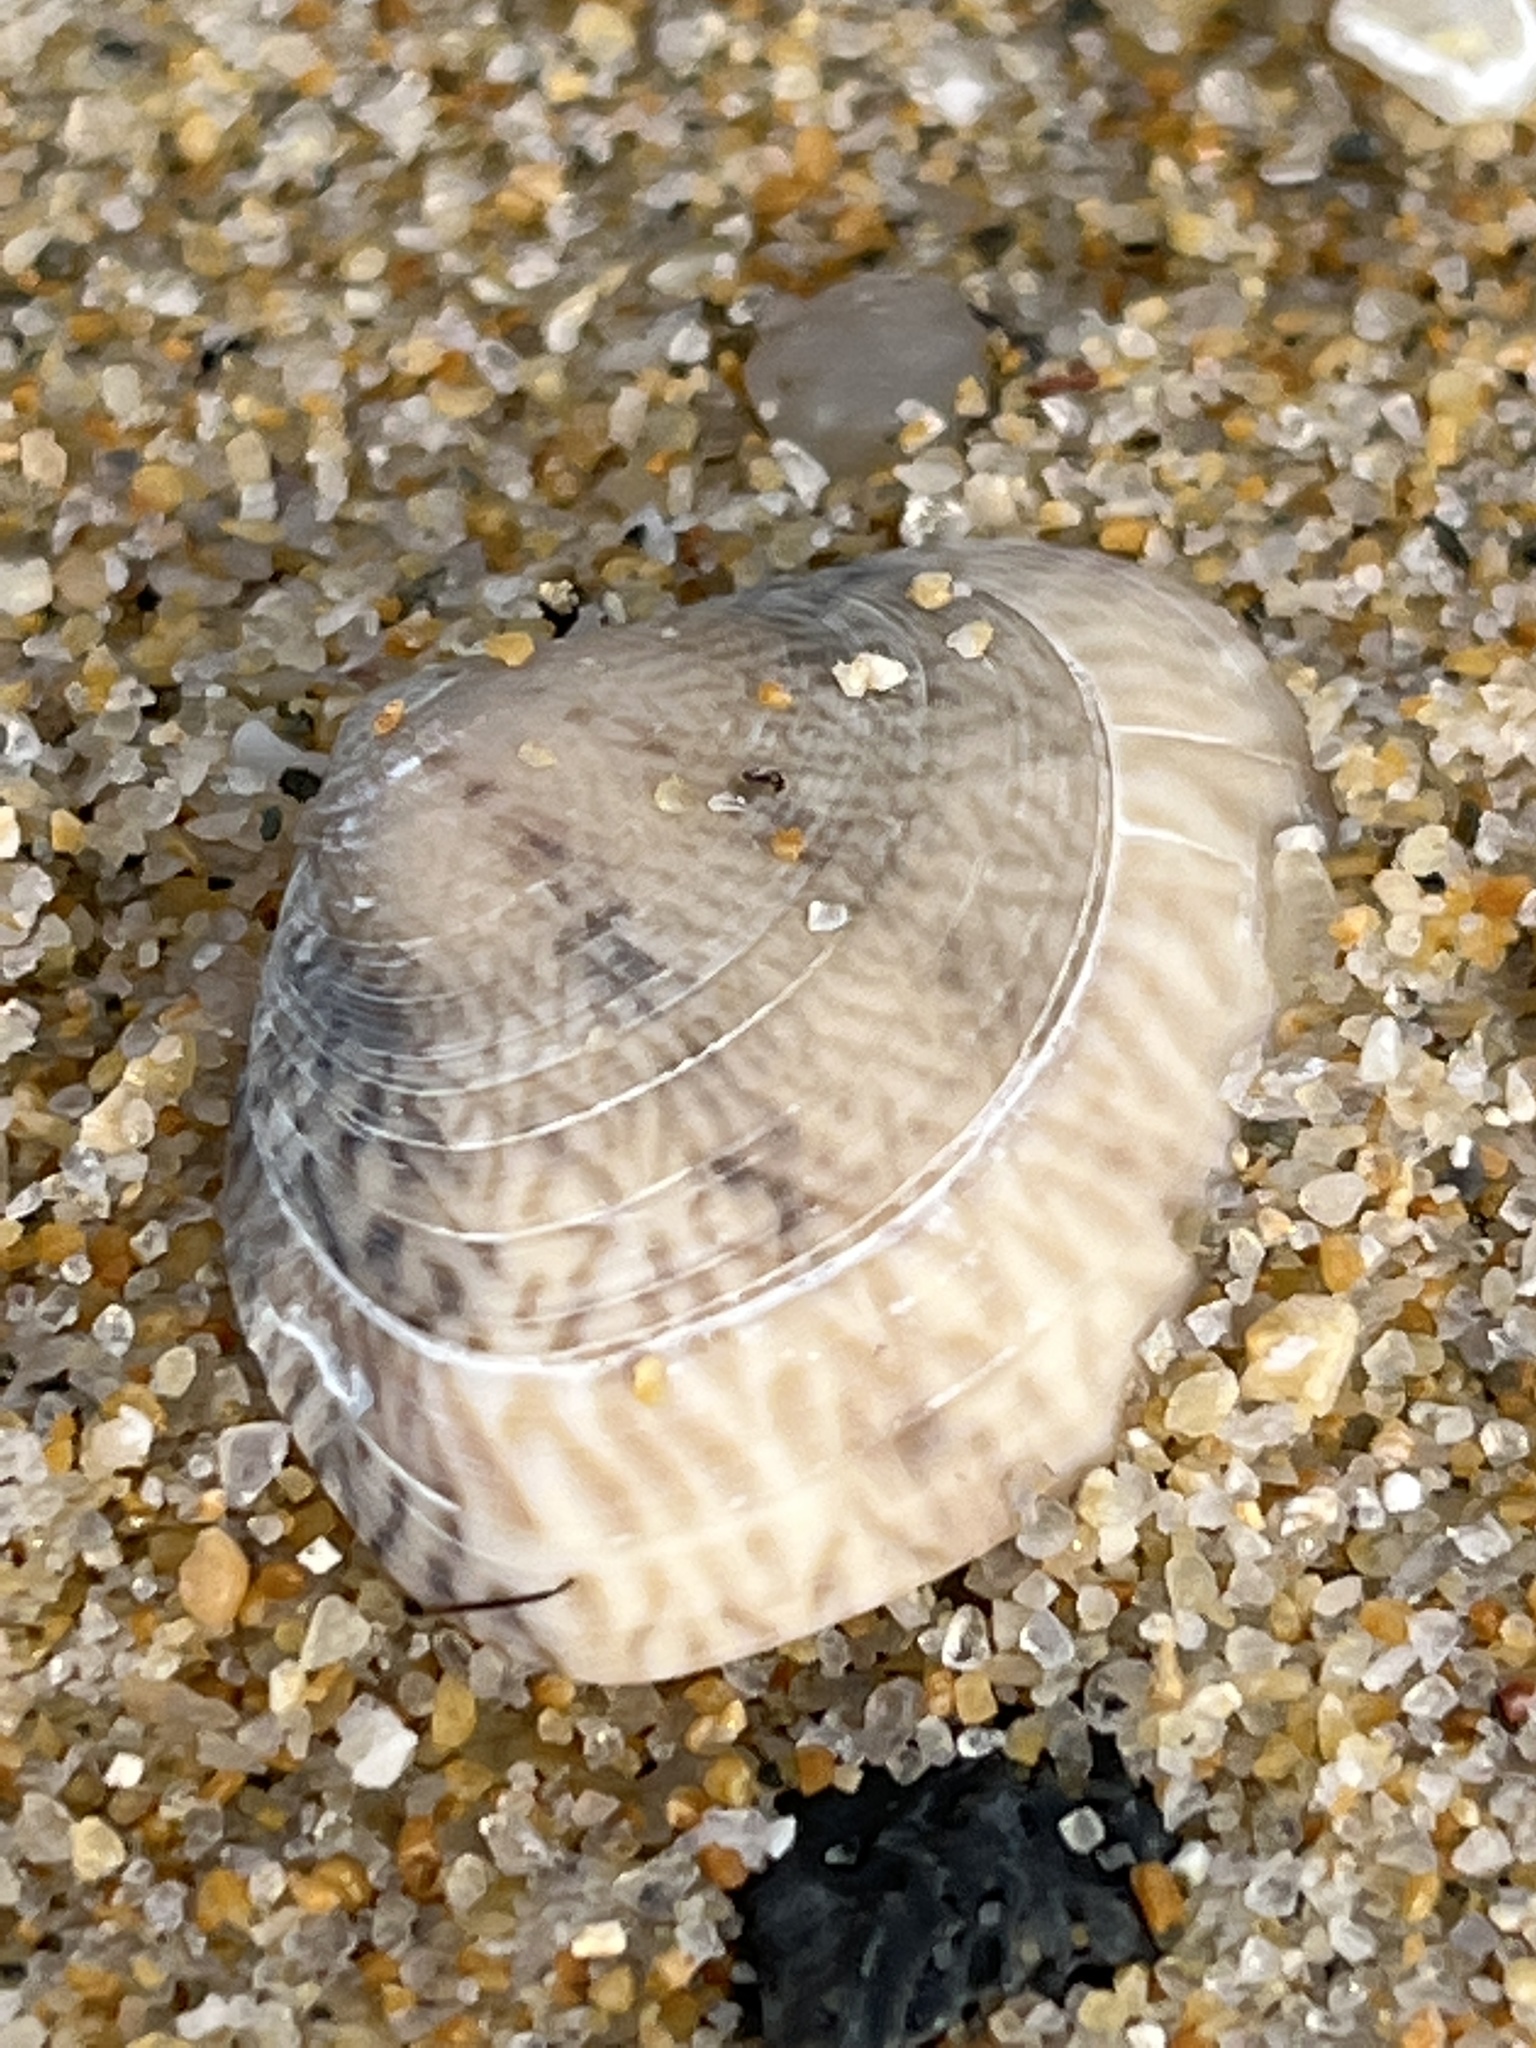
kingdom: Animalia
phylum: Mollusca
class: Bivalvia
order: Venerida
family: Veneridae
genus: Macridiscus
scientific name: Macridiscus aequilatera
